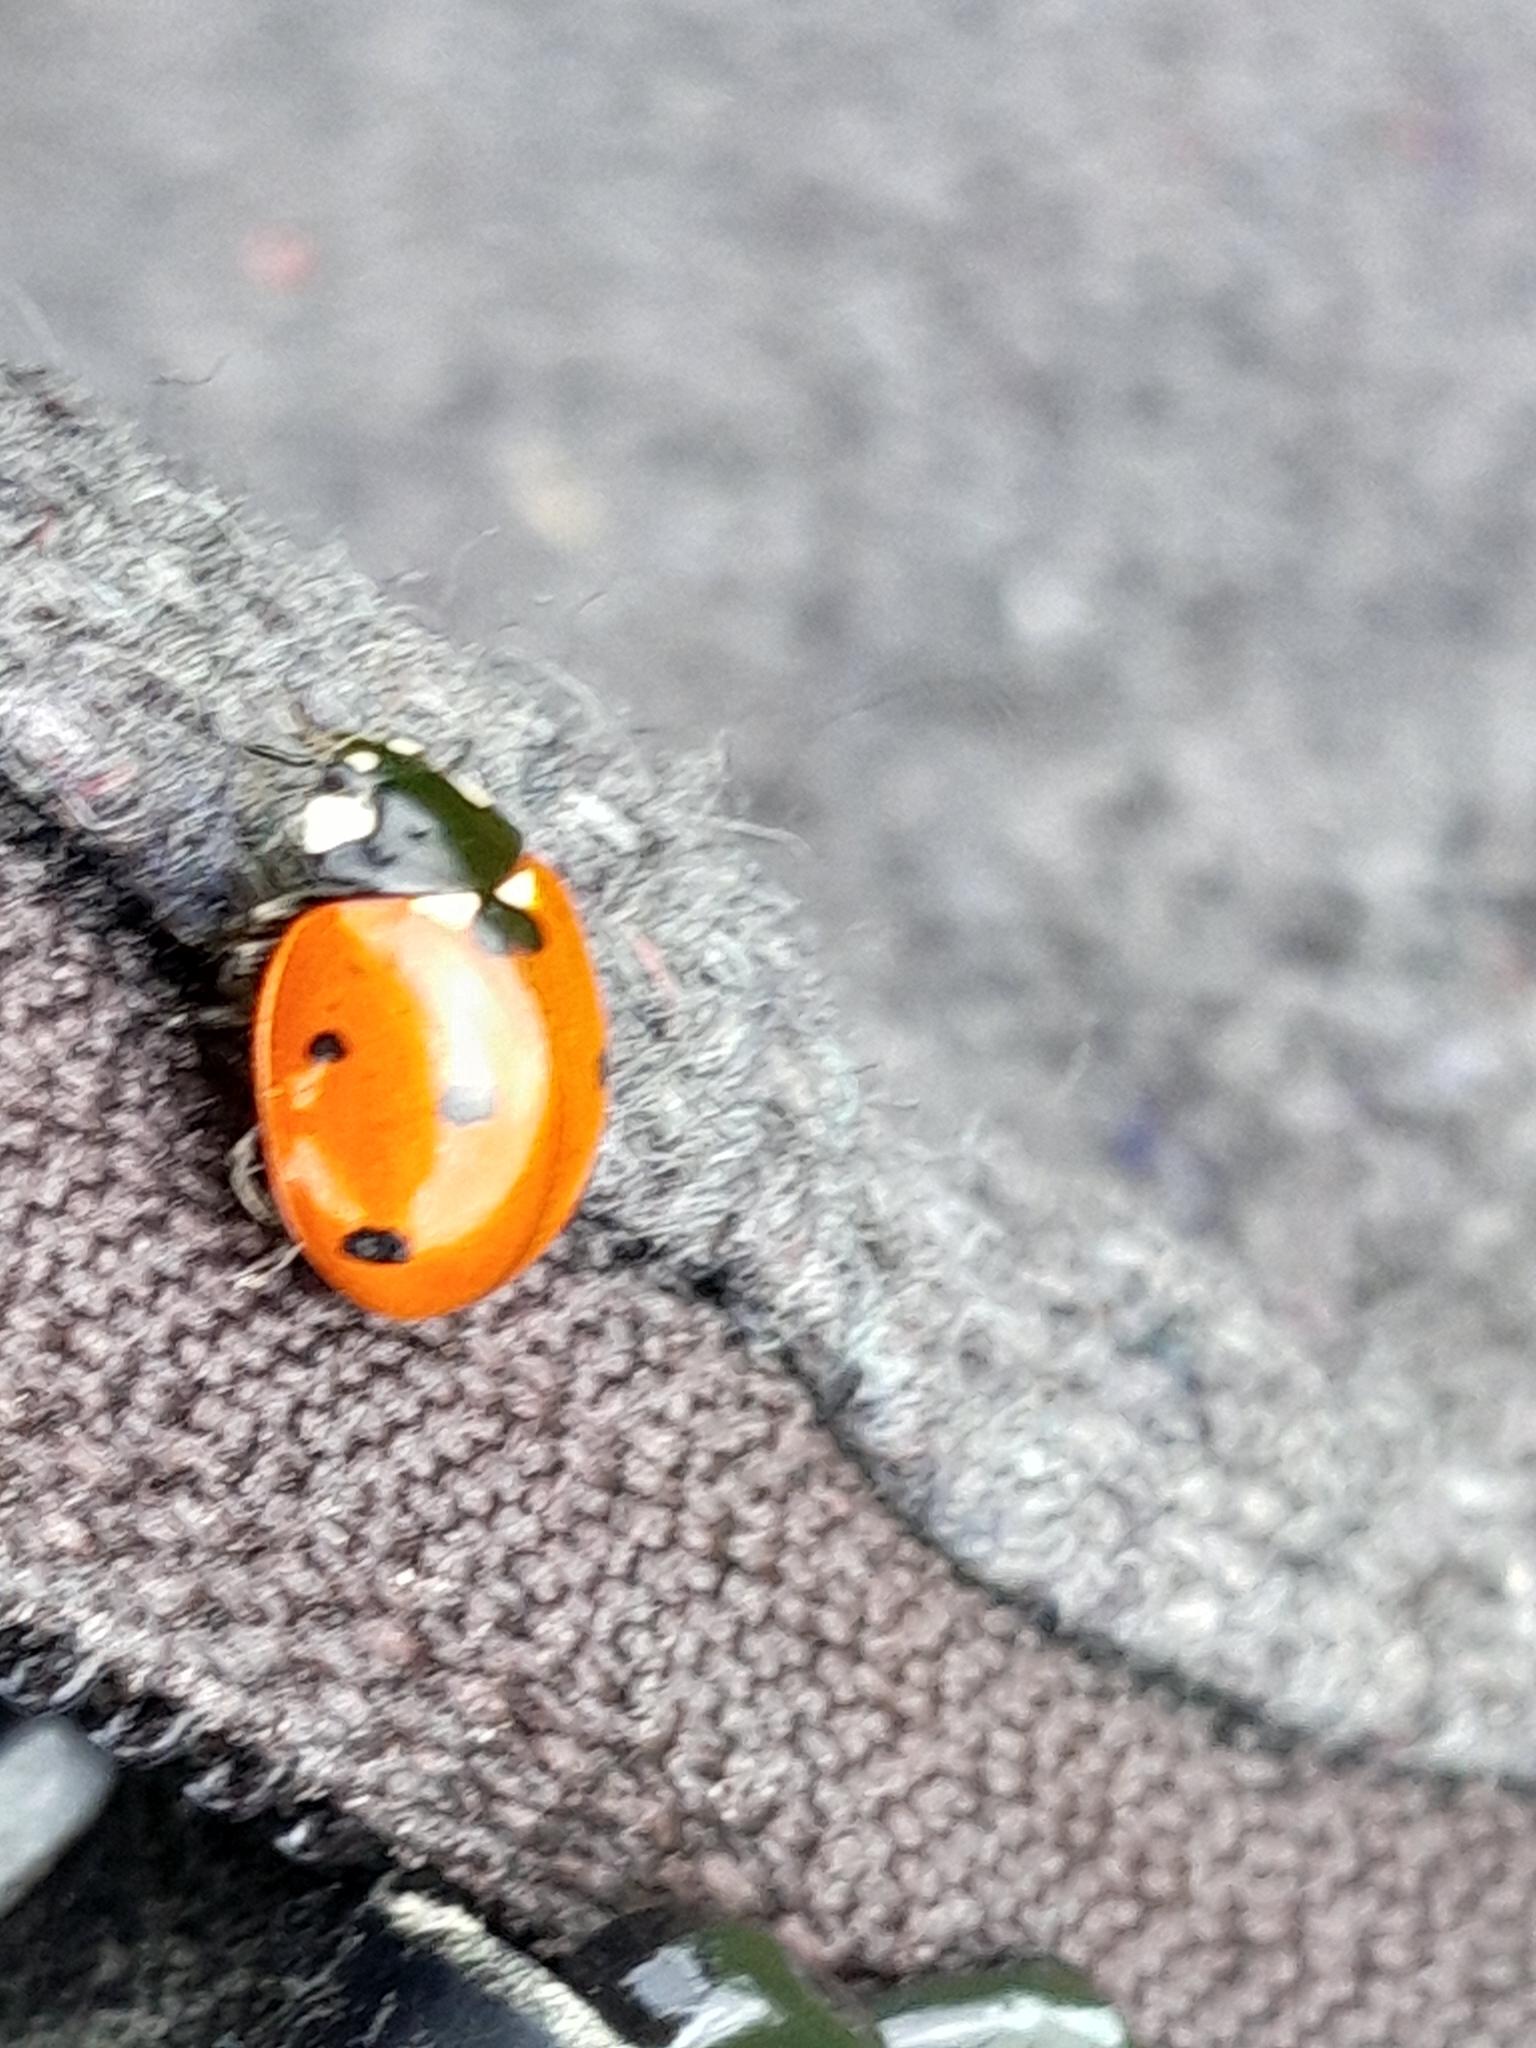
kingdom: Animalia
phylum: Arthropoda
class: Insecta
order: Coleoptera
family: Coccinellidae
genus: Coccinella
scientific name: Coccinella septempunctata
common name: Sevenspotted lady beetle
